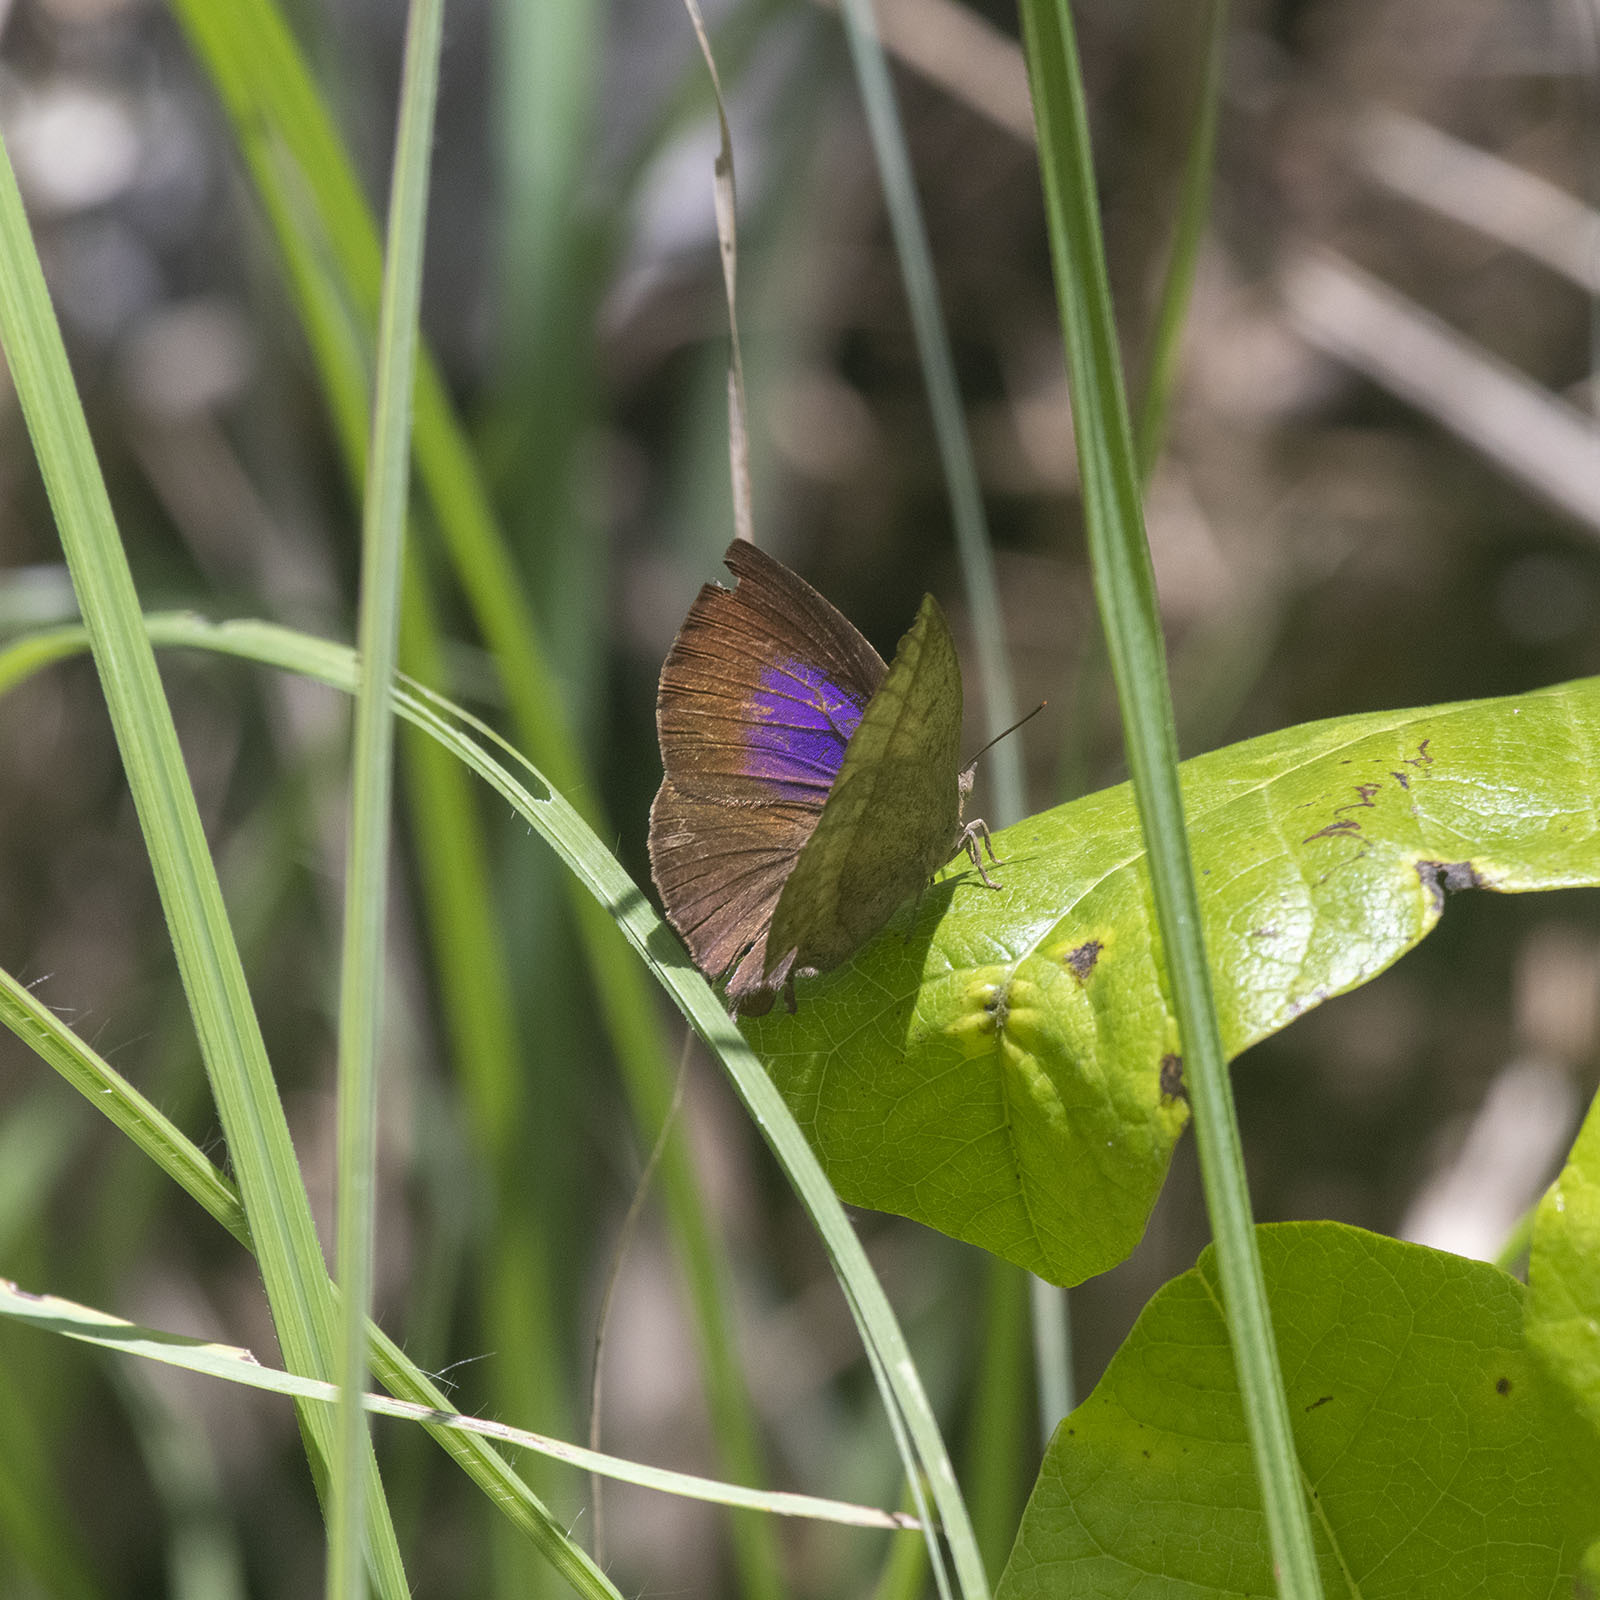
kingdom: Animalia
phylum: Arthropoda
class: Insecta
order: Lepidoptera
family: Lycaenidae
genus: Amblypodia
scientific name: Amblypodia anita
